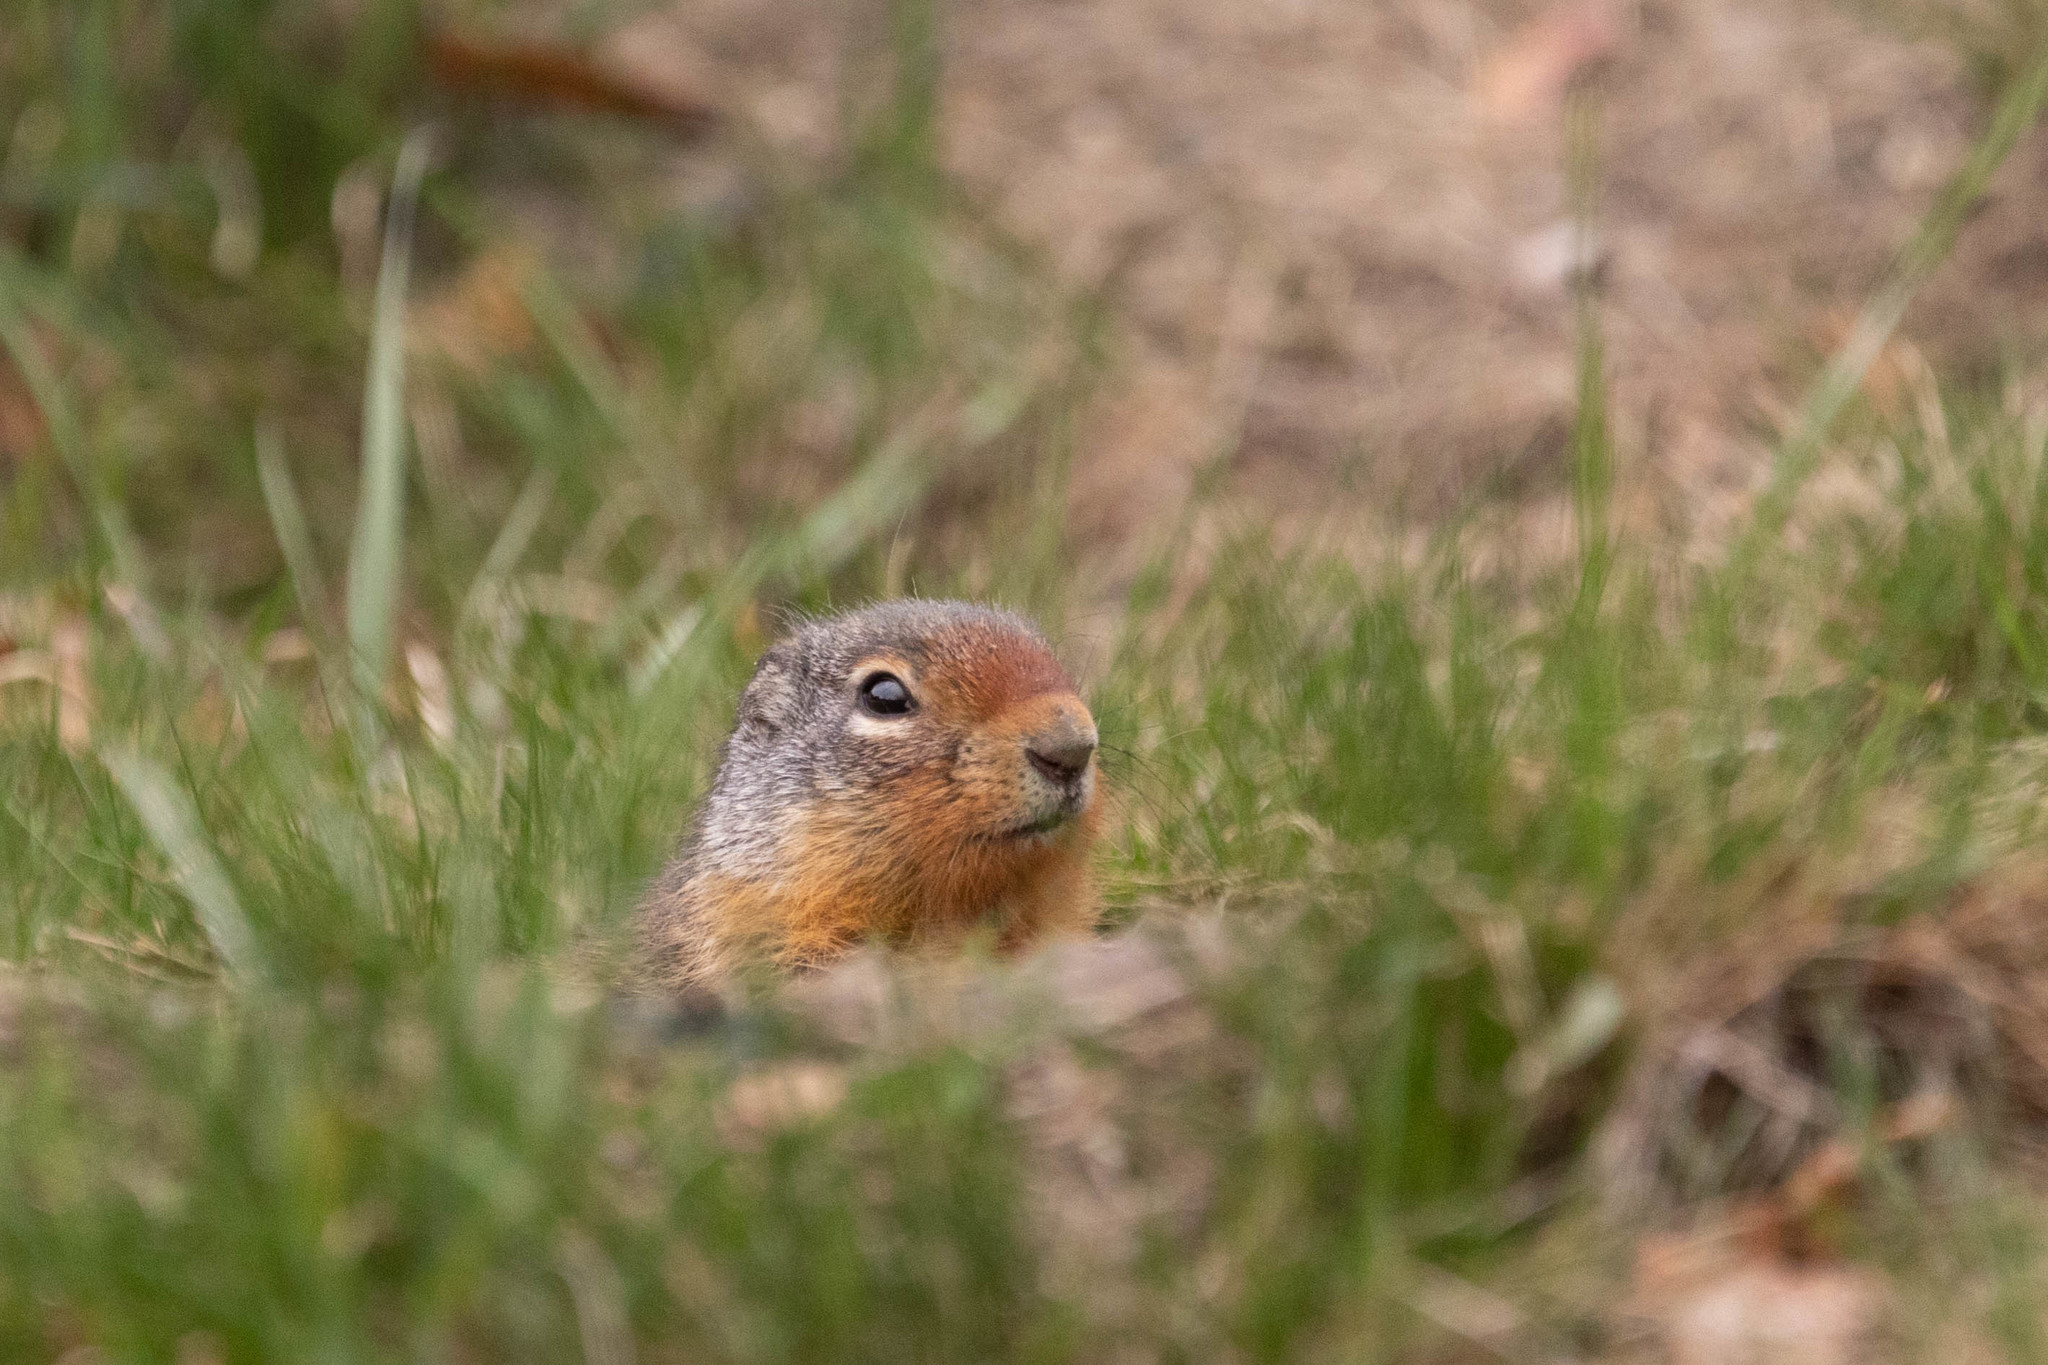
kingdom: Animalia
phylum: Chordata
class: Mammalia
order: Rodentia
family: Sciuridae
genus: Urocitellus
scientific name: Urocitellus columbianus
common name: Columbian ground squirrel
